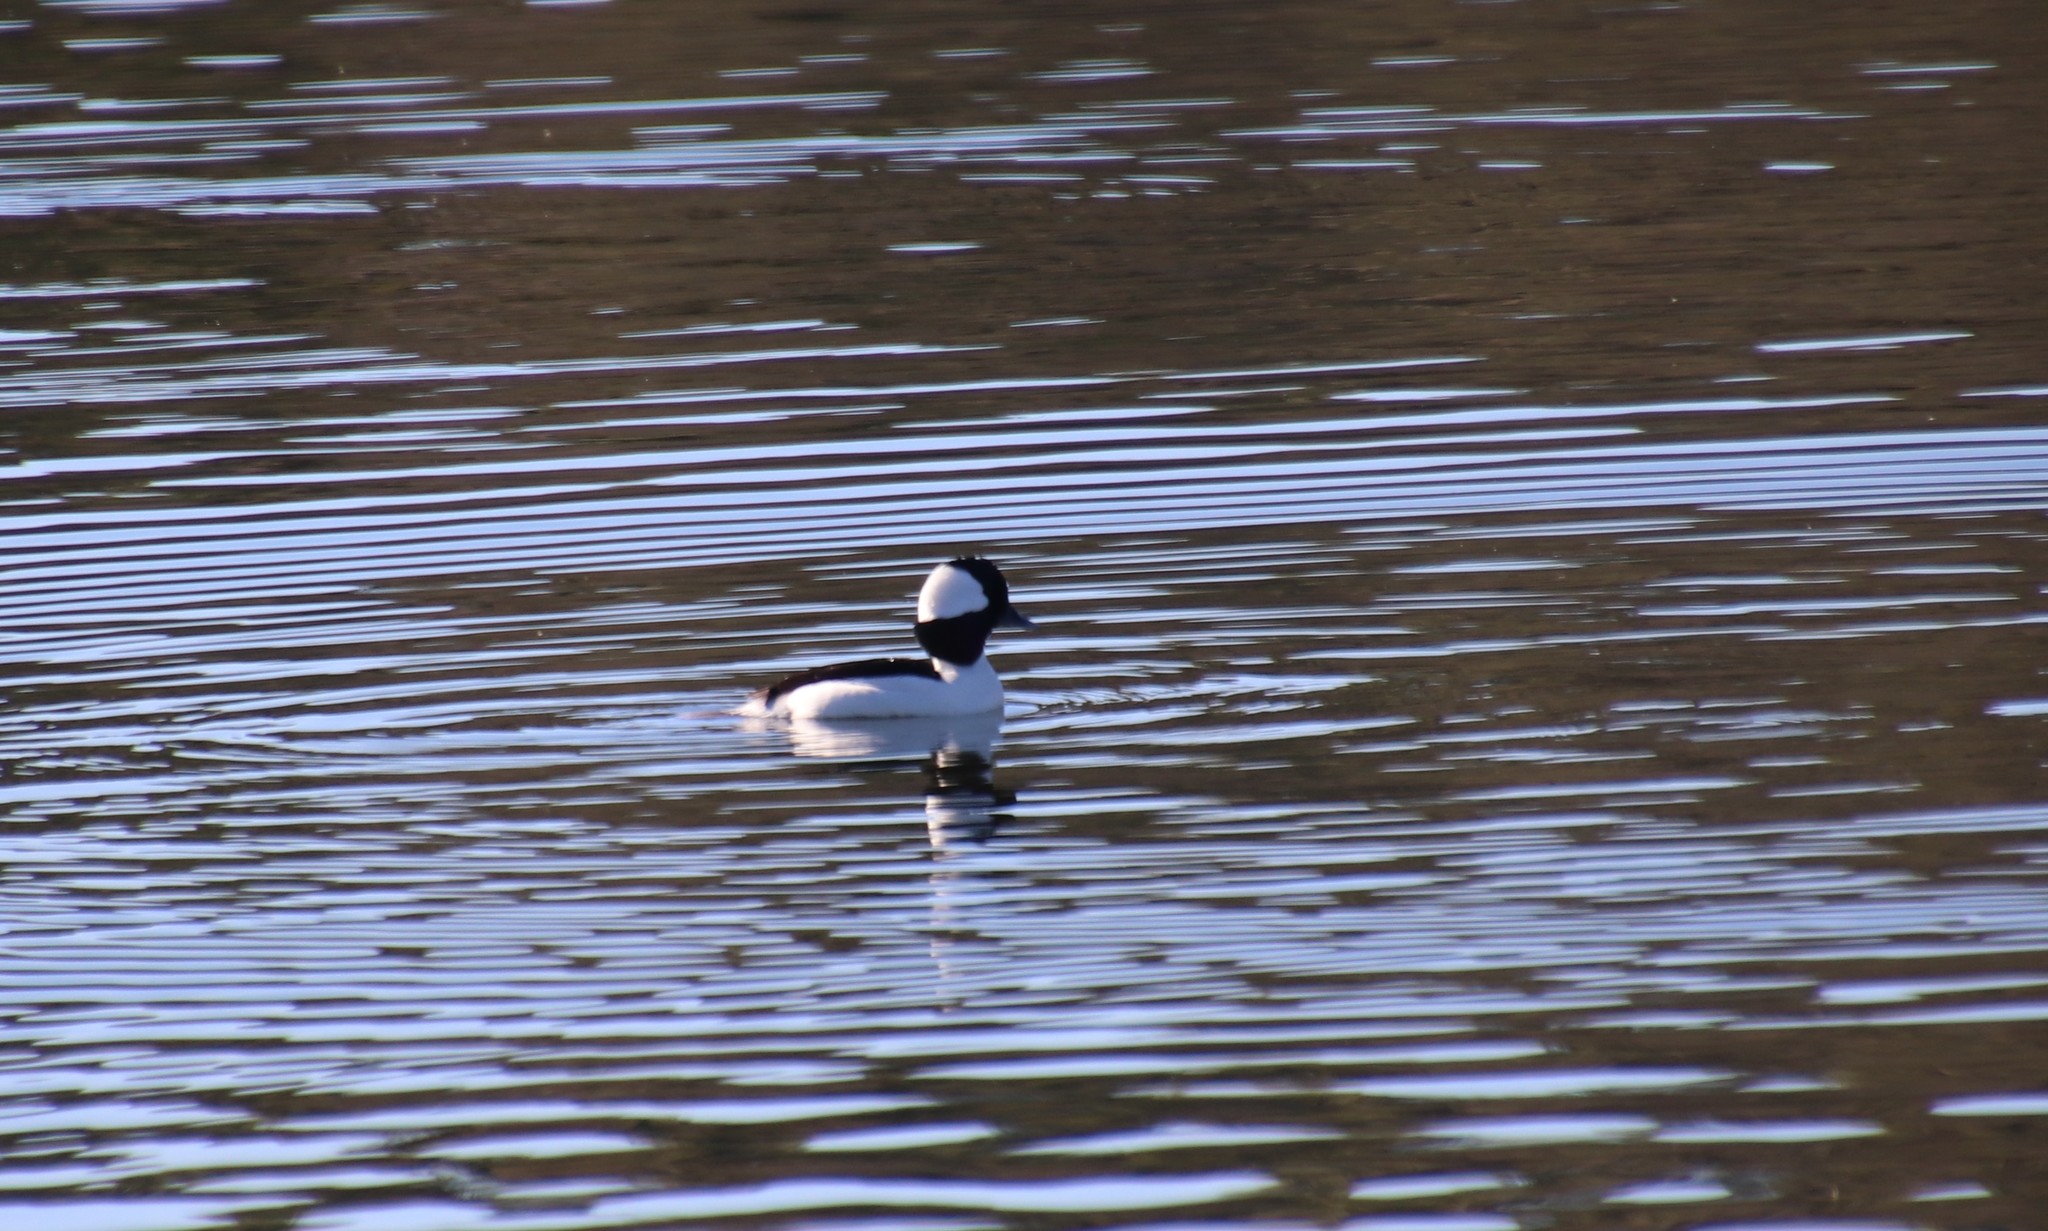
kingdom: Animalia
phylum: Chordata
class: Aves
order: Anseriformes
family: Anatidae
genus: Bucephala
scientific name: Bucephala albeola
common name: Bufflehead
